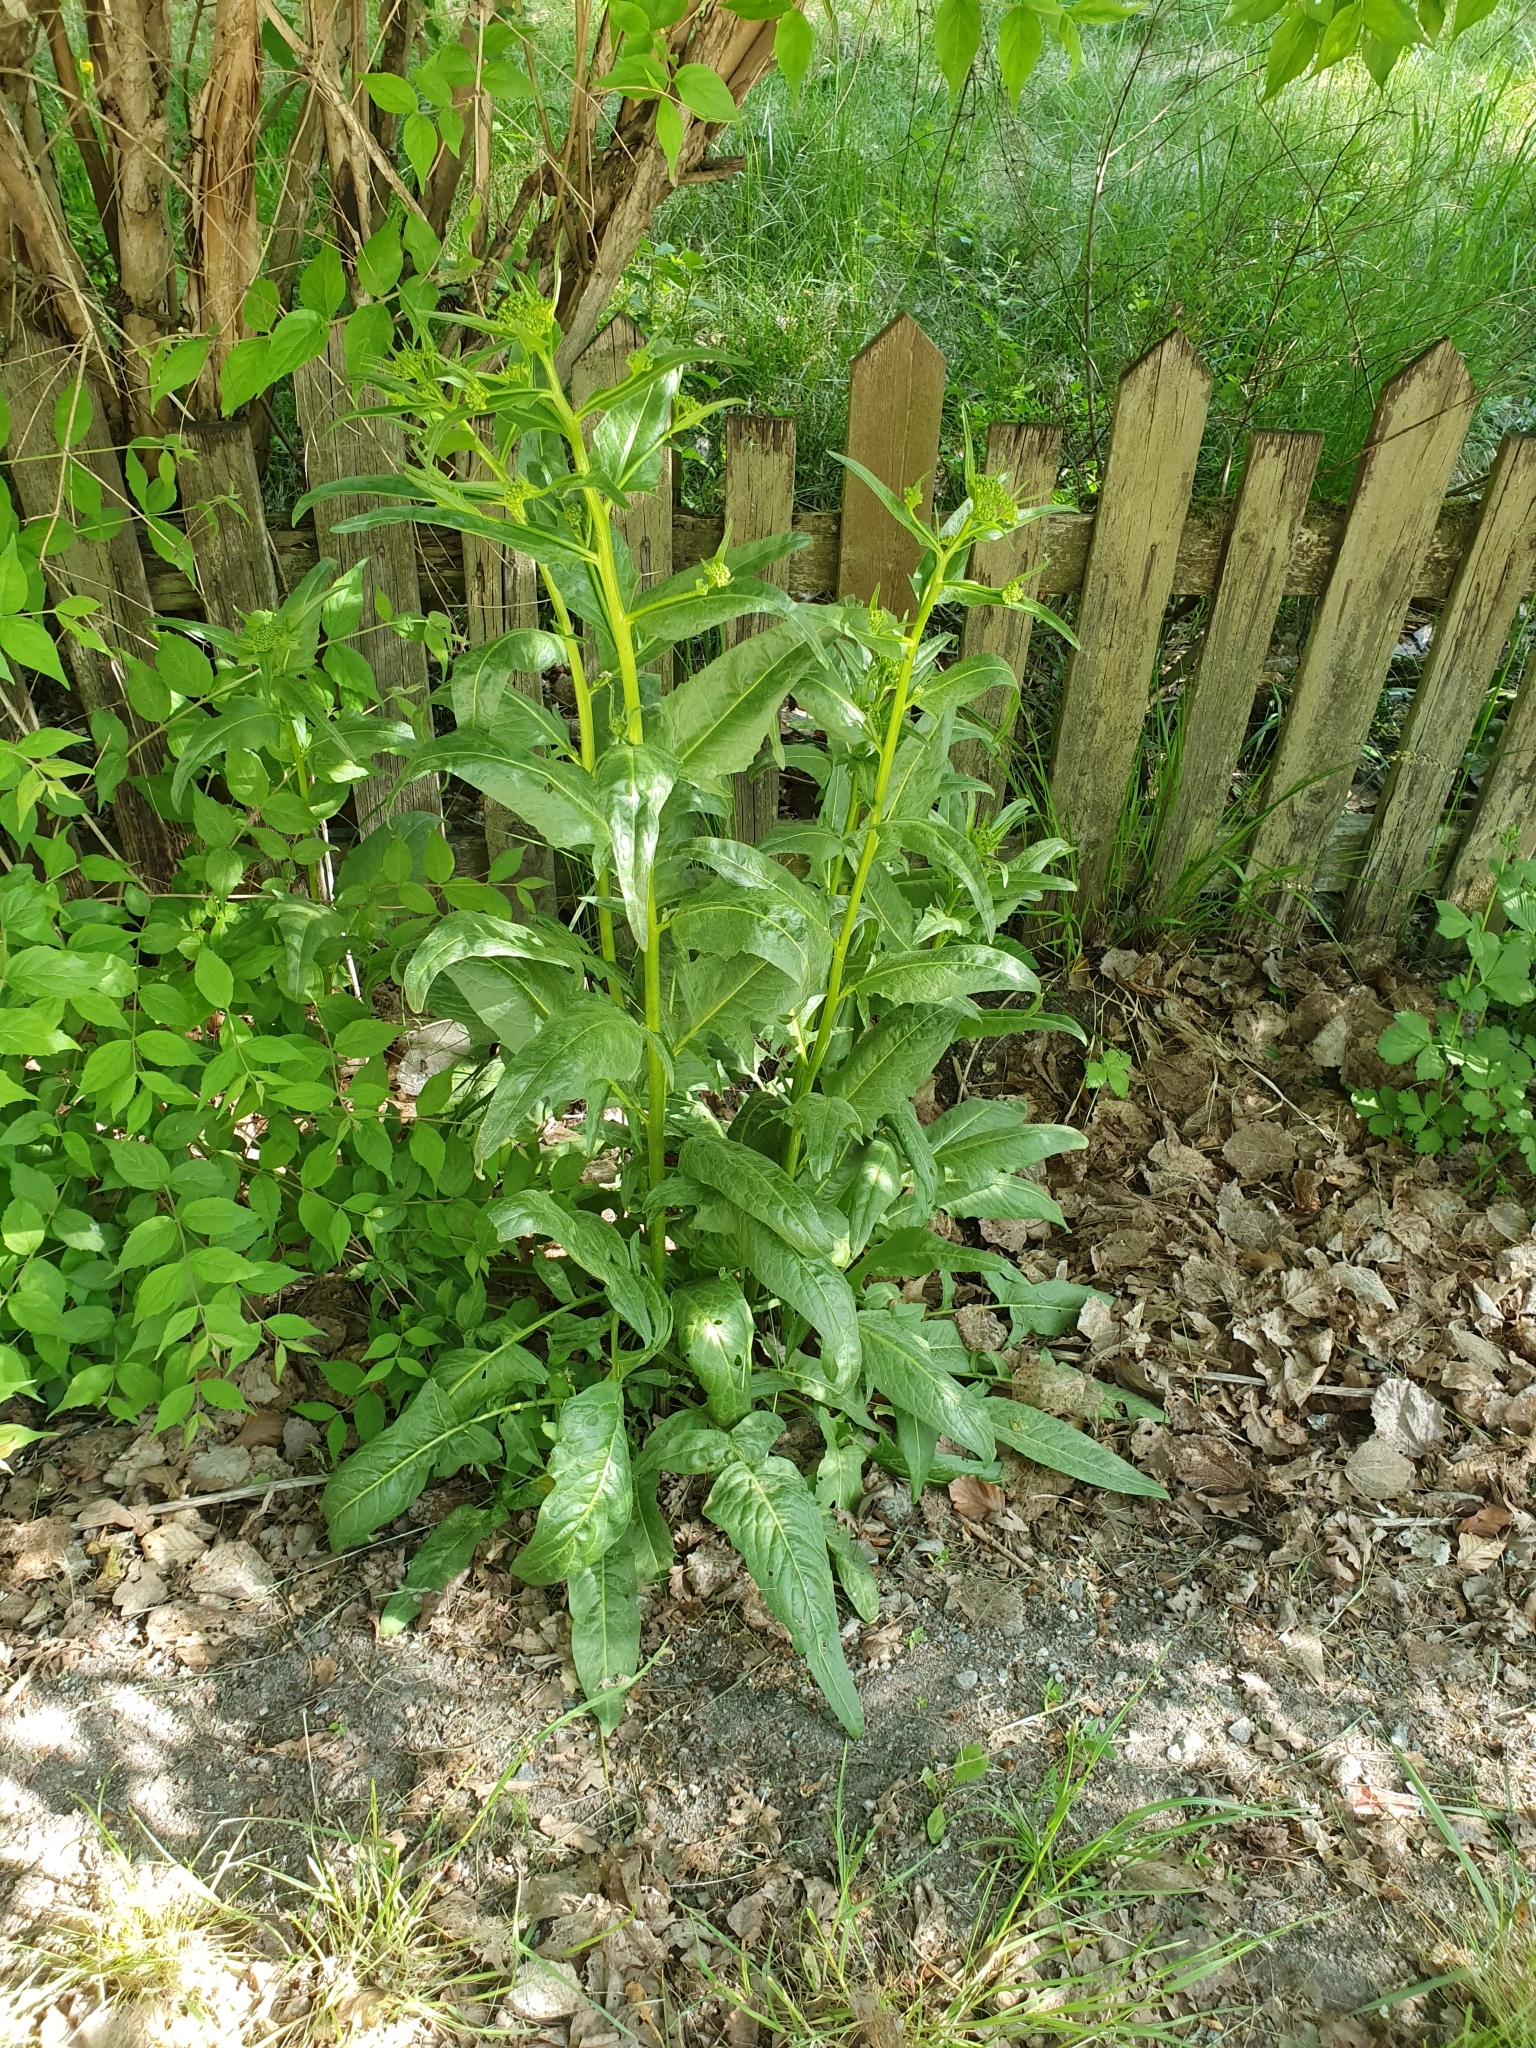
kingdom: Plantae
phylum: Tracheophyta
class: Magnoliopsida
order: Brassicales
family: Brassicaceae
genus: Bunias
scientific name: Bunias orientalis
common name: Warty-cabbage
